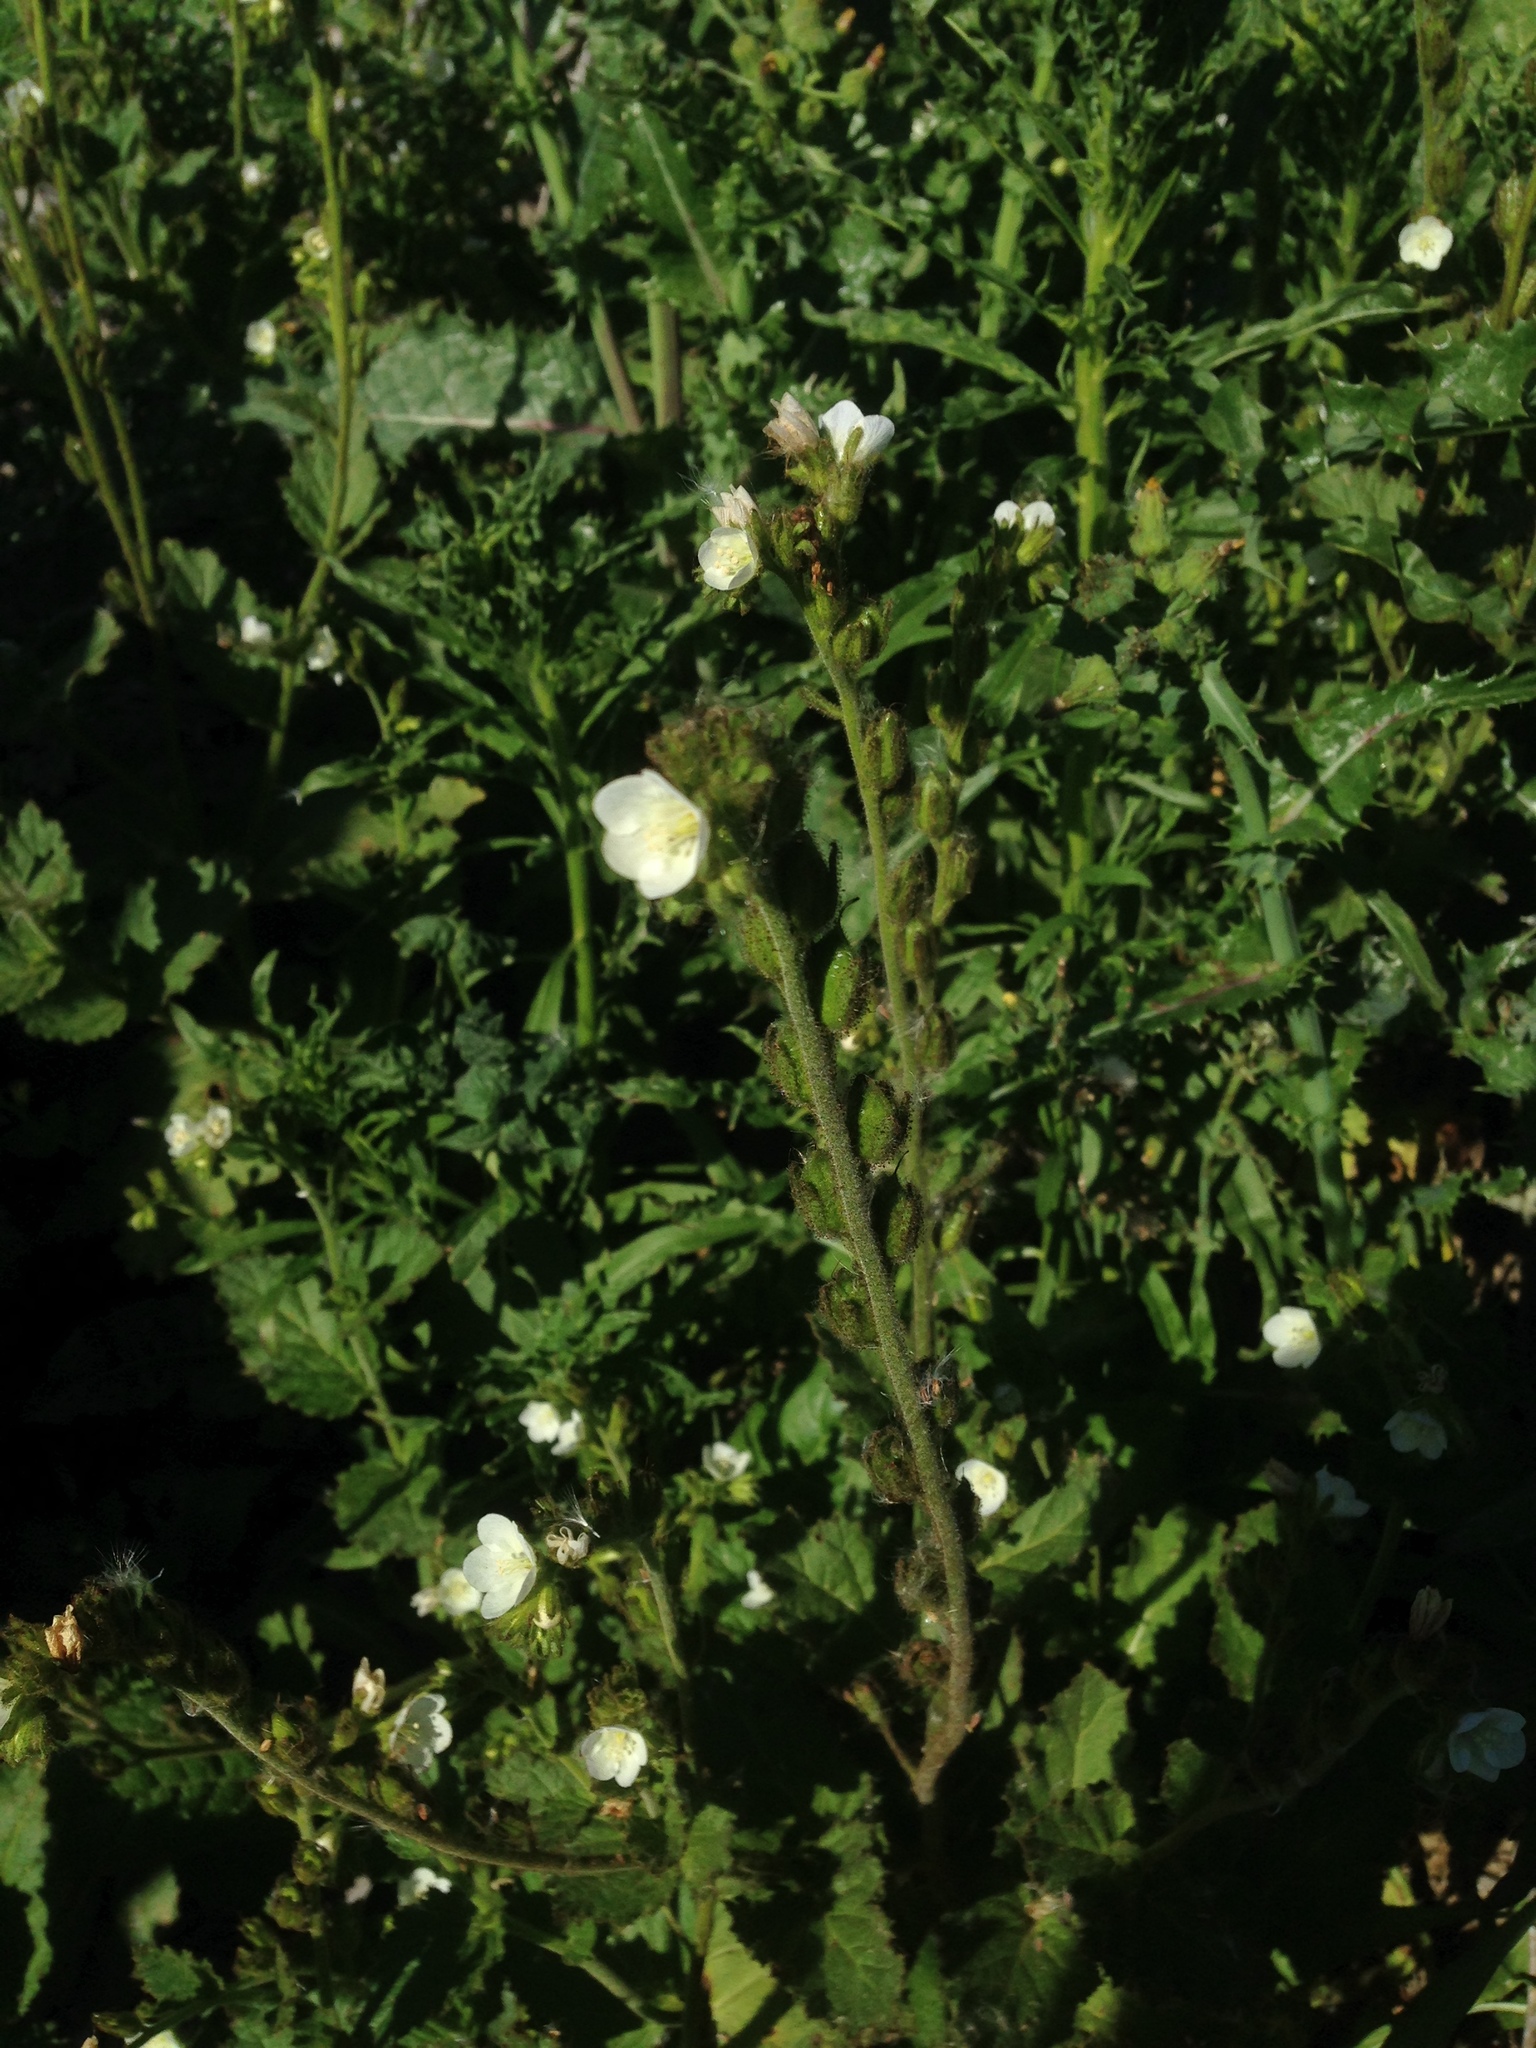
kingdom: Plantae
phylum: Tracheophyta
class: Magnoliopsida
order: Boraginales
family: Hydrophyllaceae
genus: Phacelia
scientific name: Phacelia viscida
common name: Sticky phacelia
